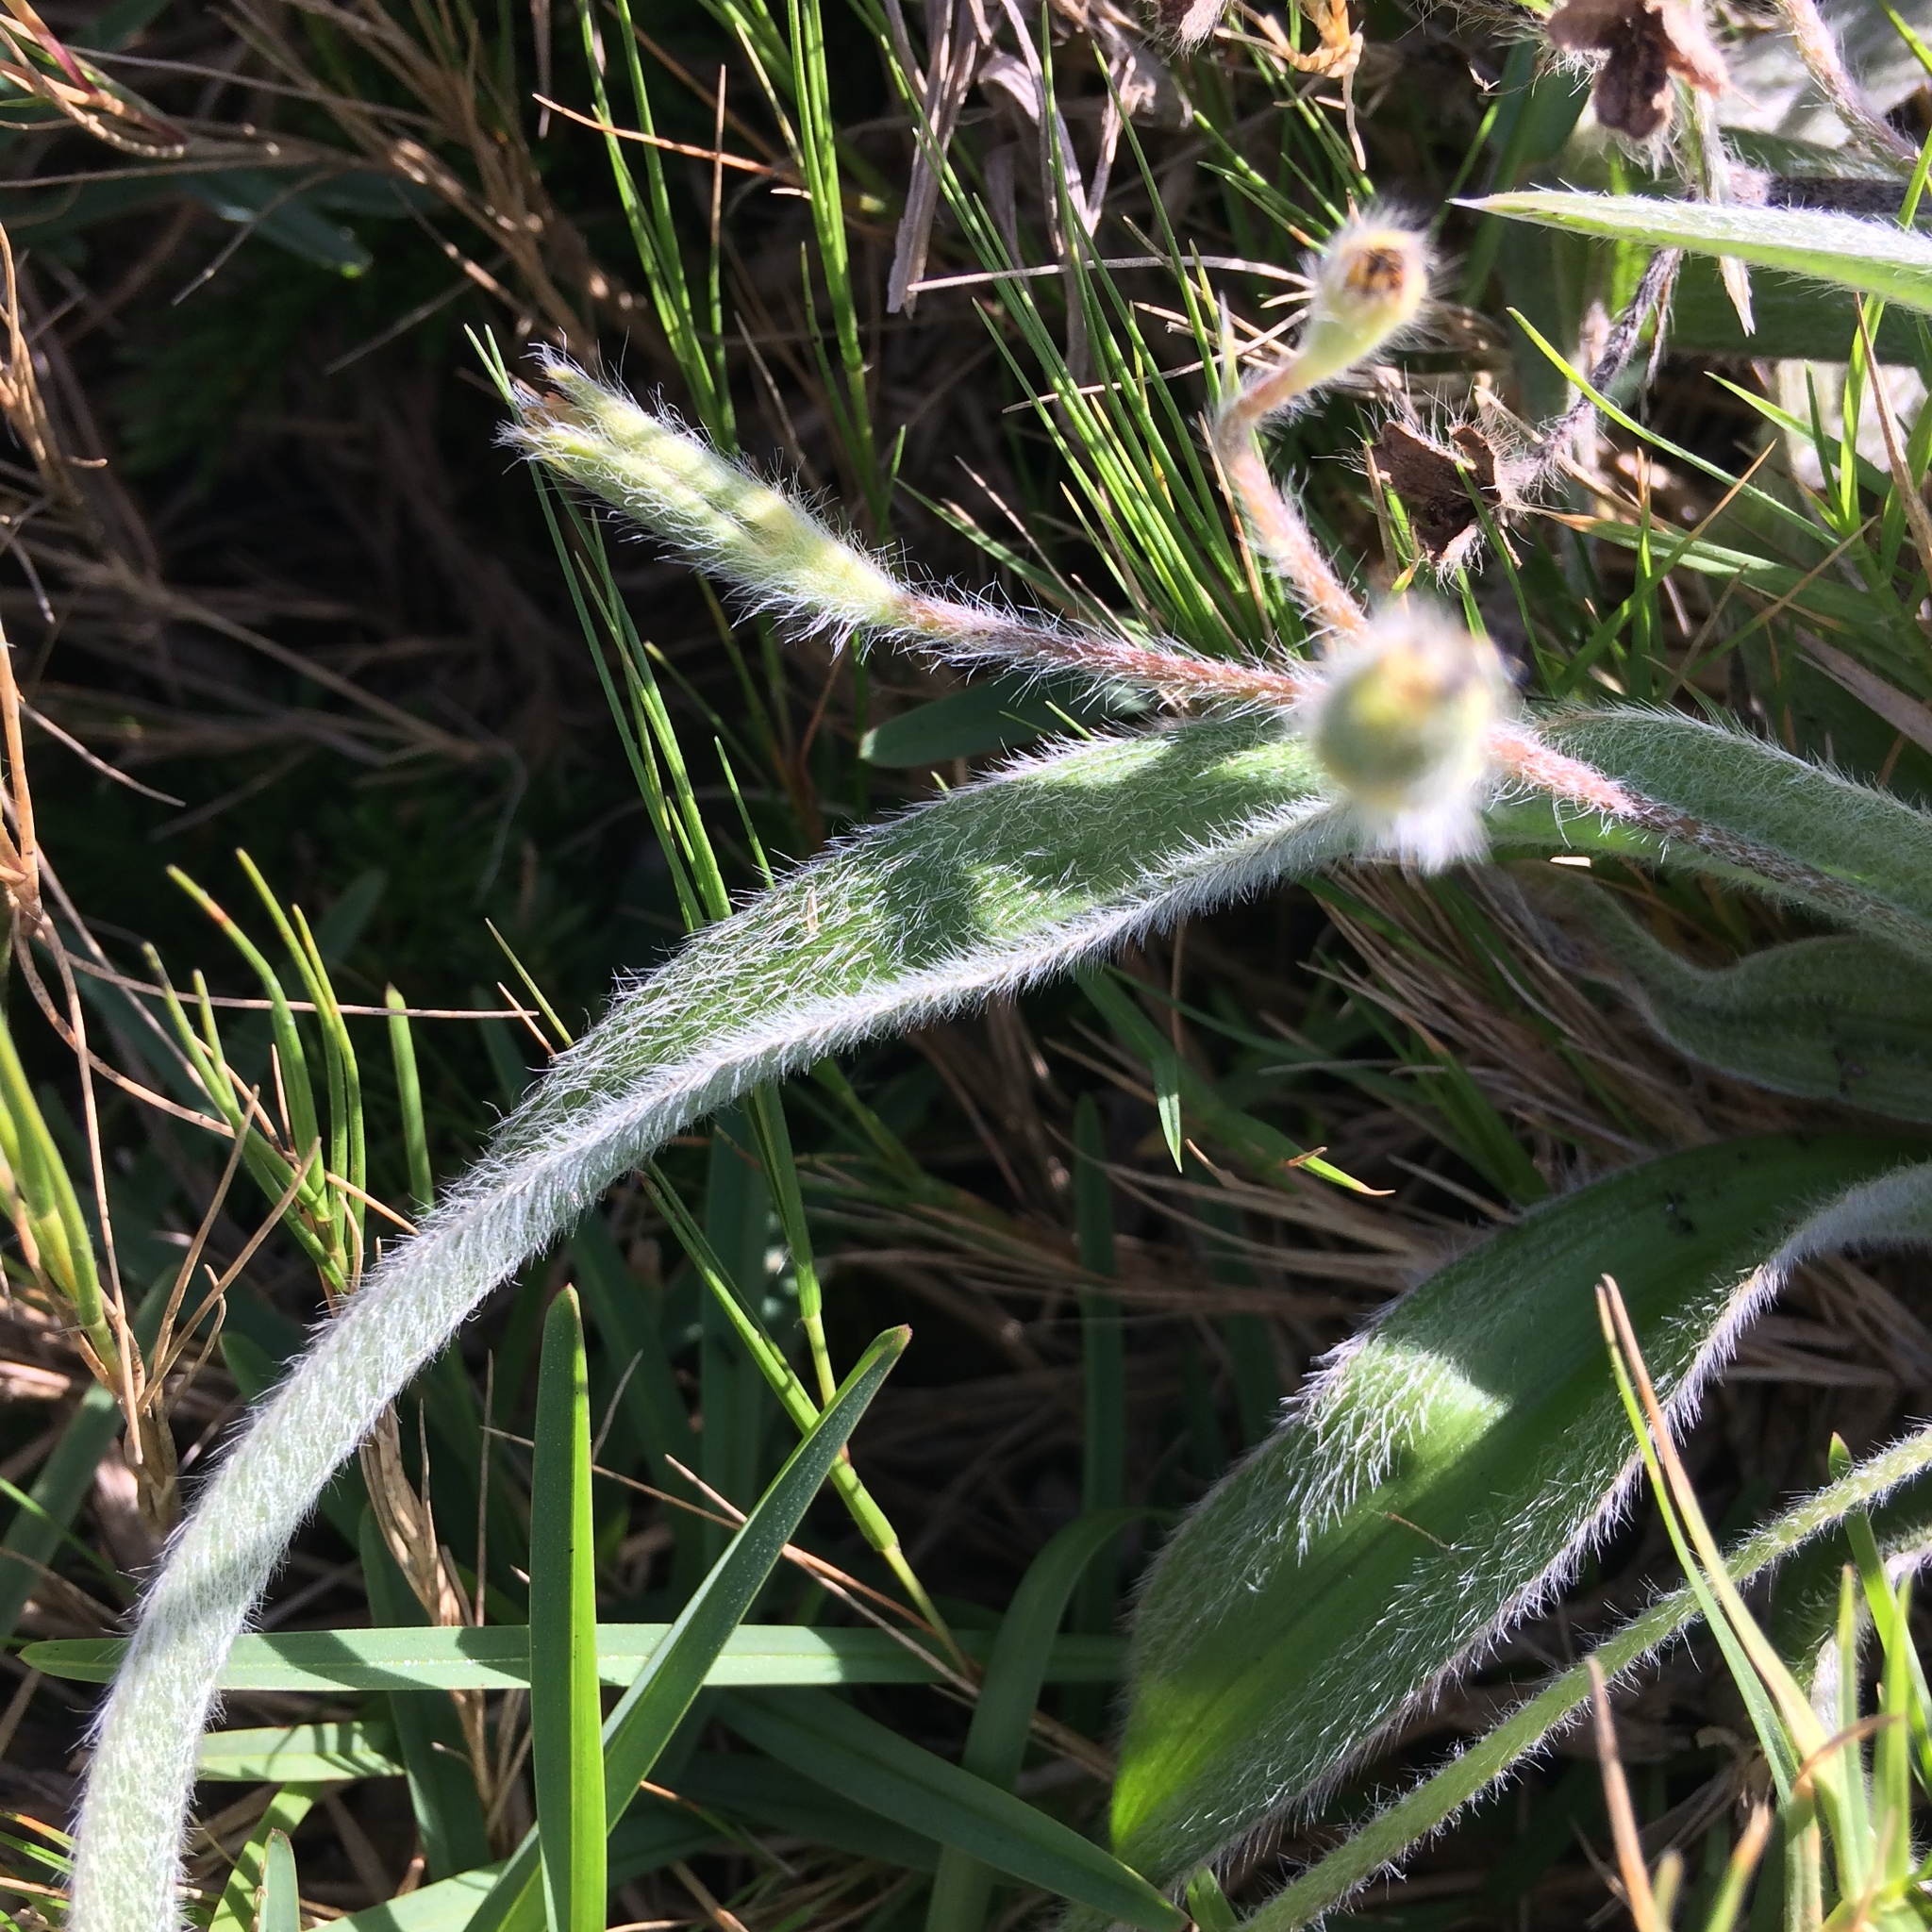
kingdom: Plantae
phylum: Tracheophyta
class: Liliopsida
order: Asparagales
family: Hypoxidaceae
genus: Hypoxis
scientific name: Hypoxis villosa
